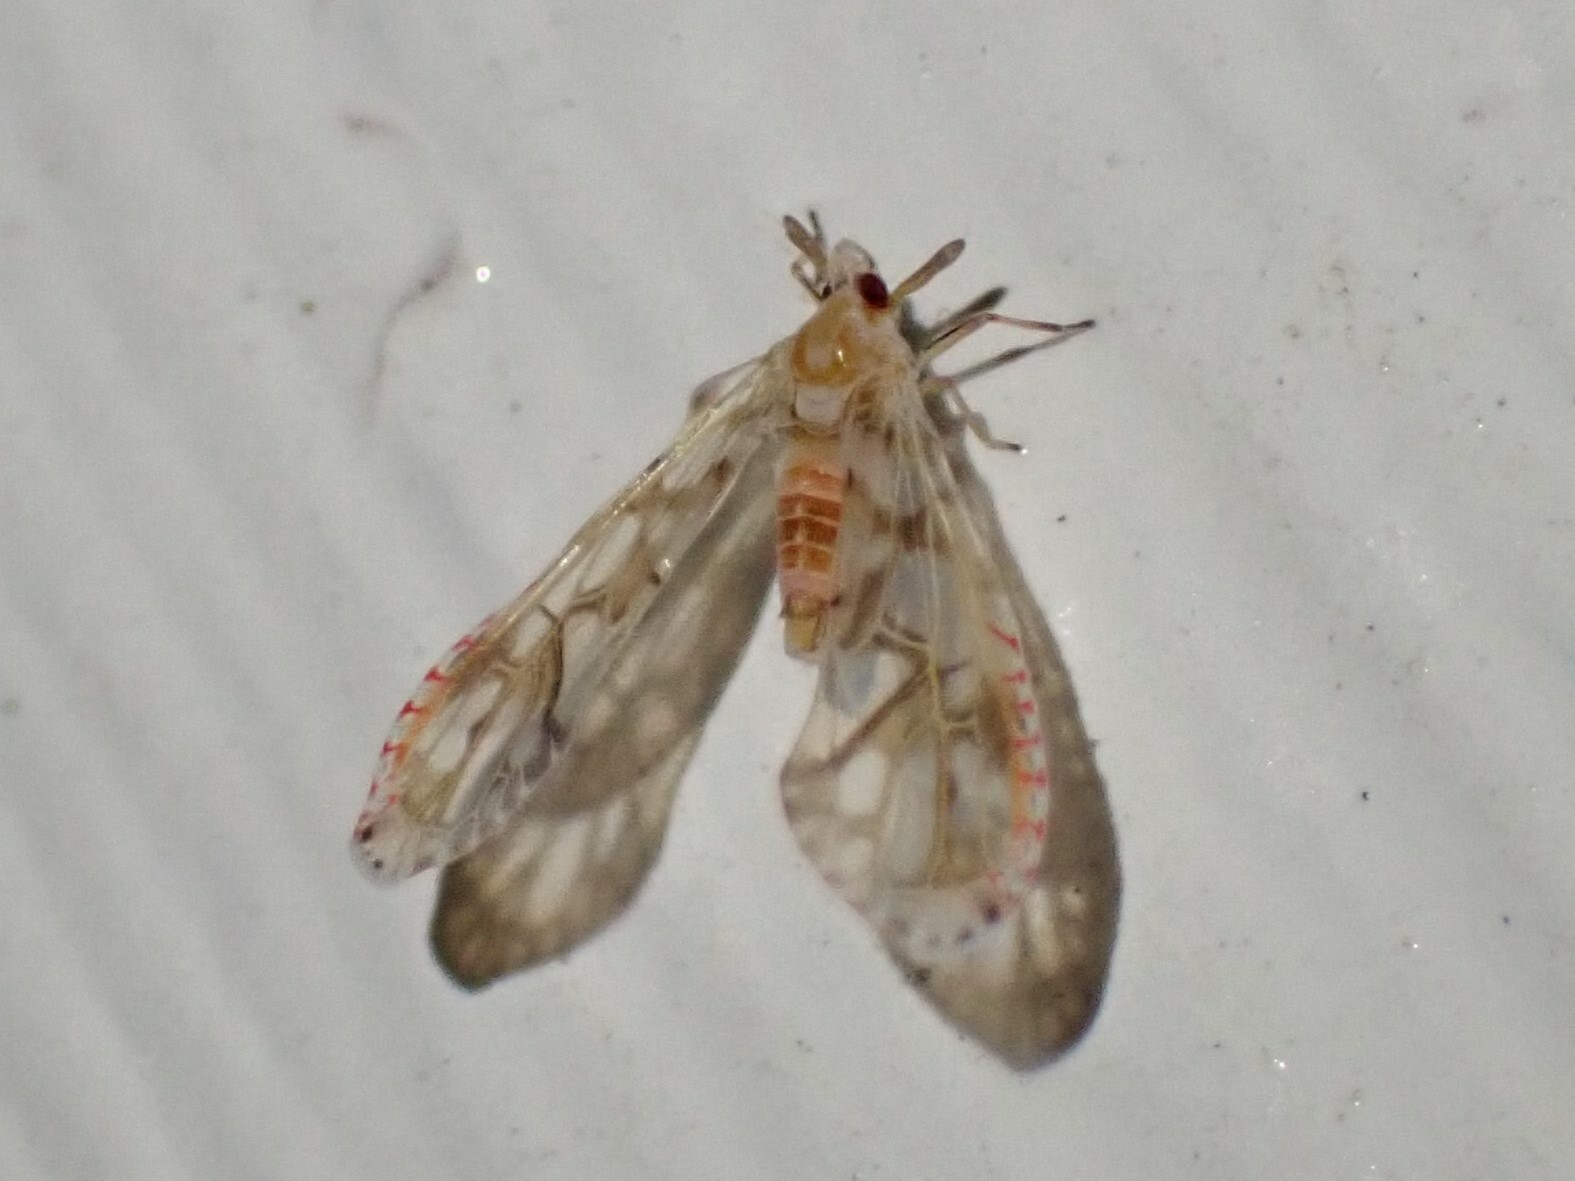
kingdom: Animalia
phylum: Arthropoda
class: Insecta
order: Hemiptera
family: Derbidae
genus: Anotia
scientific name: Anotia kirkaldyi
